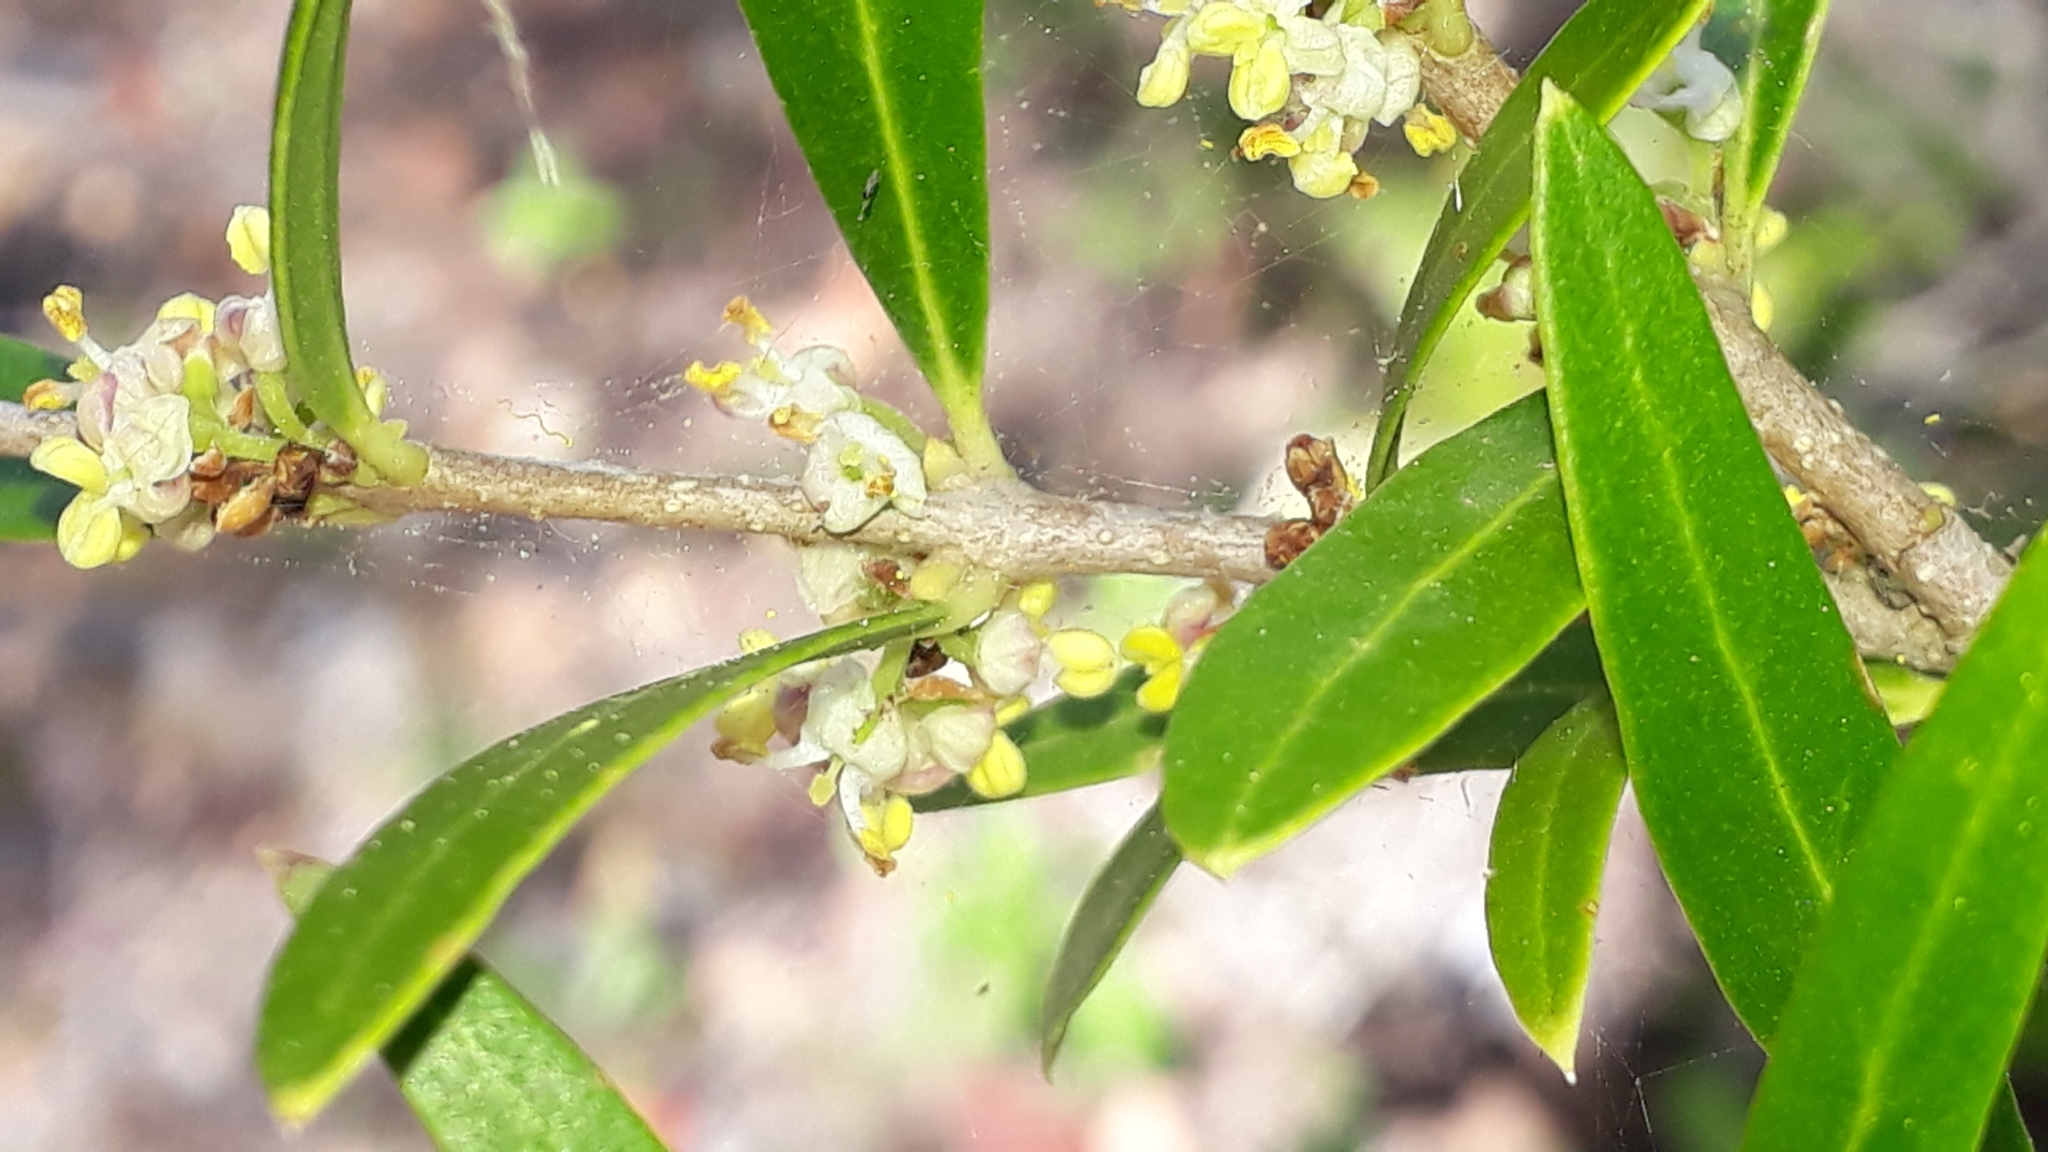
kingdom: Plantae
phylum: Tracheophyta
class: Magnoliopsida
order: Lamiales
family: Oleaceae
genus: Phillyrea
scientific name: Phillyrea angustifolia
